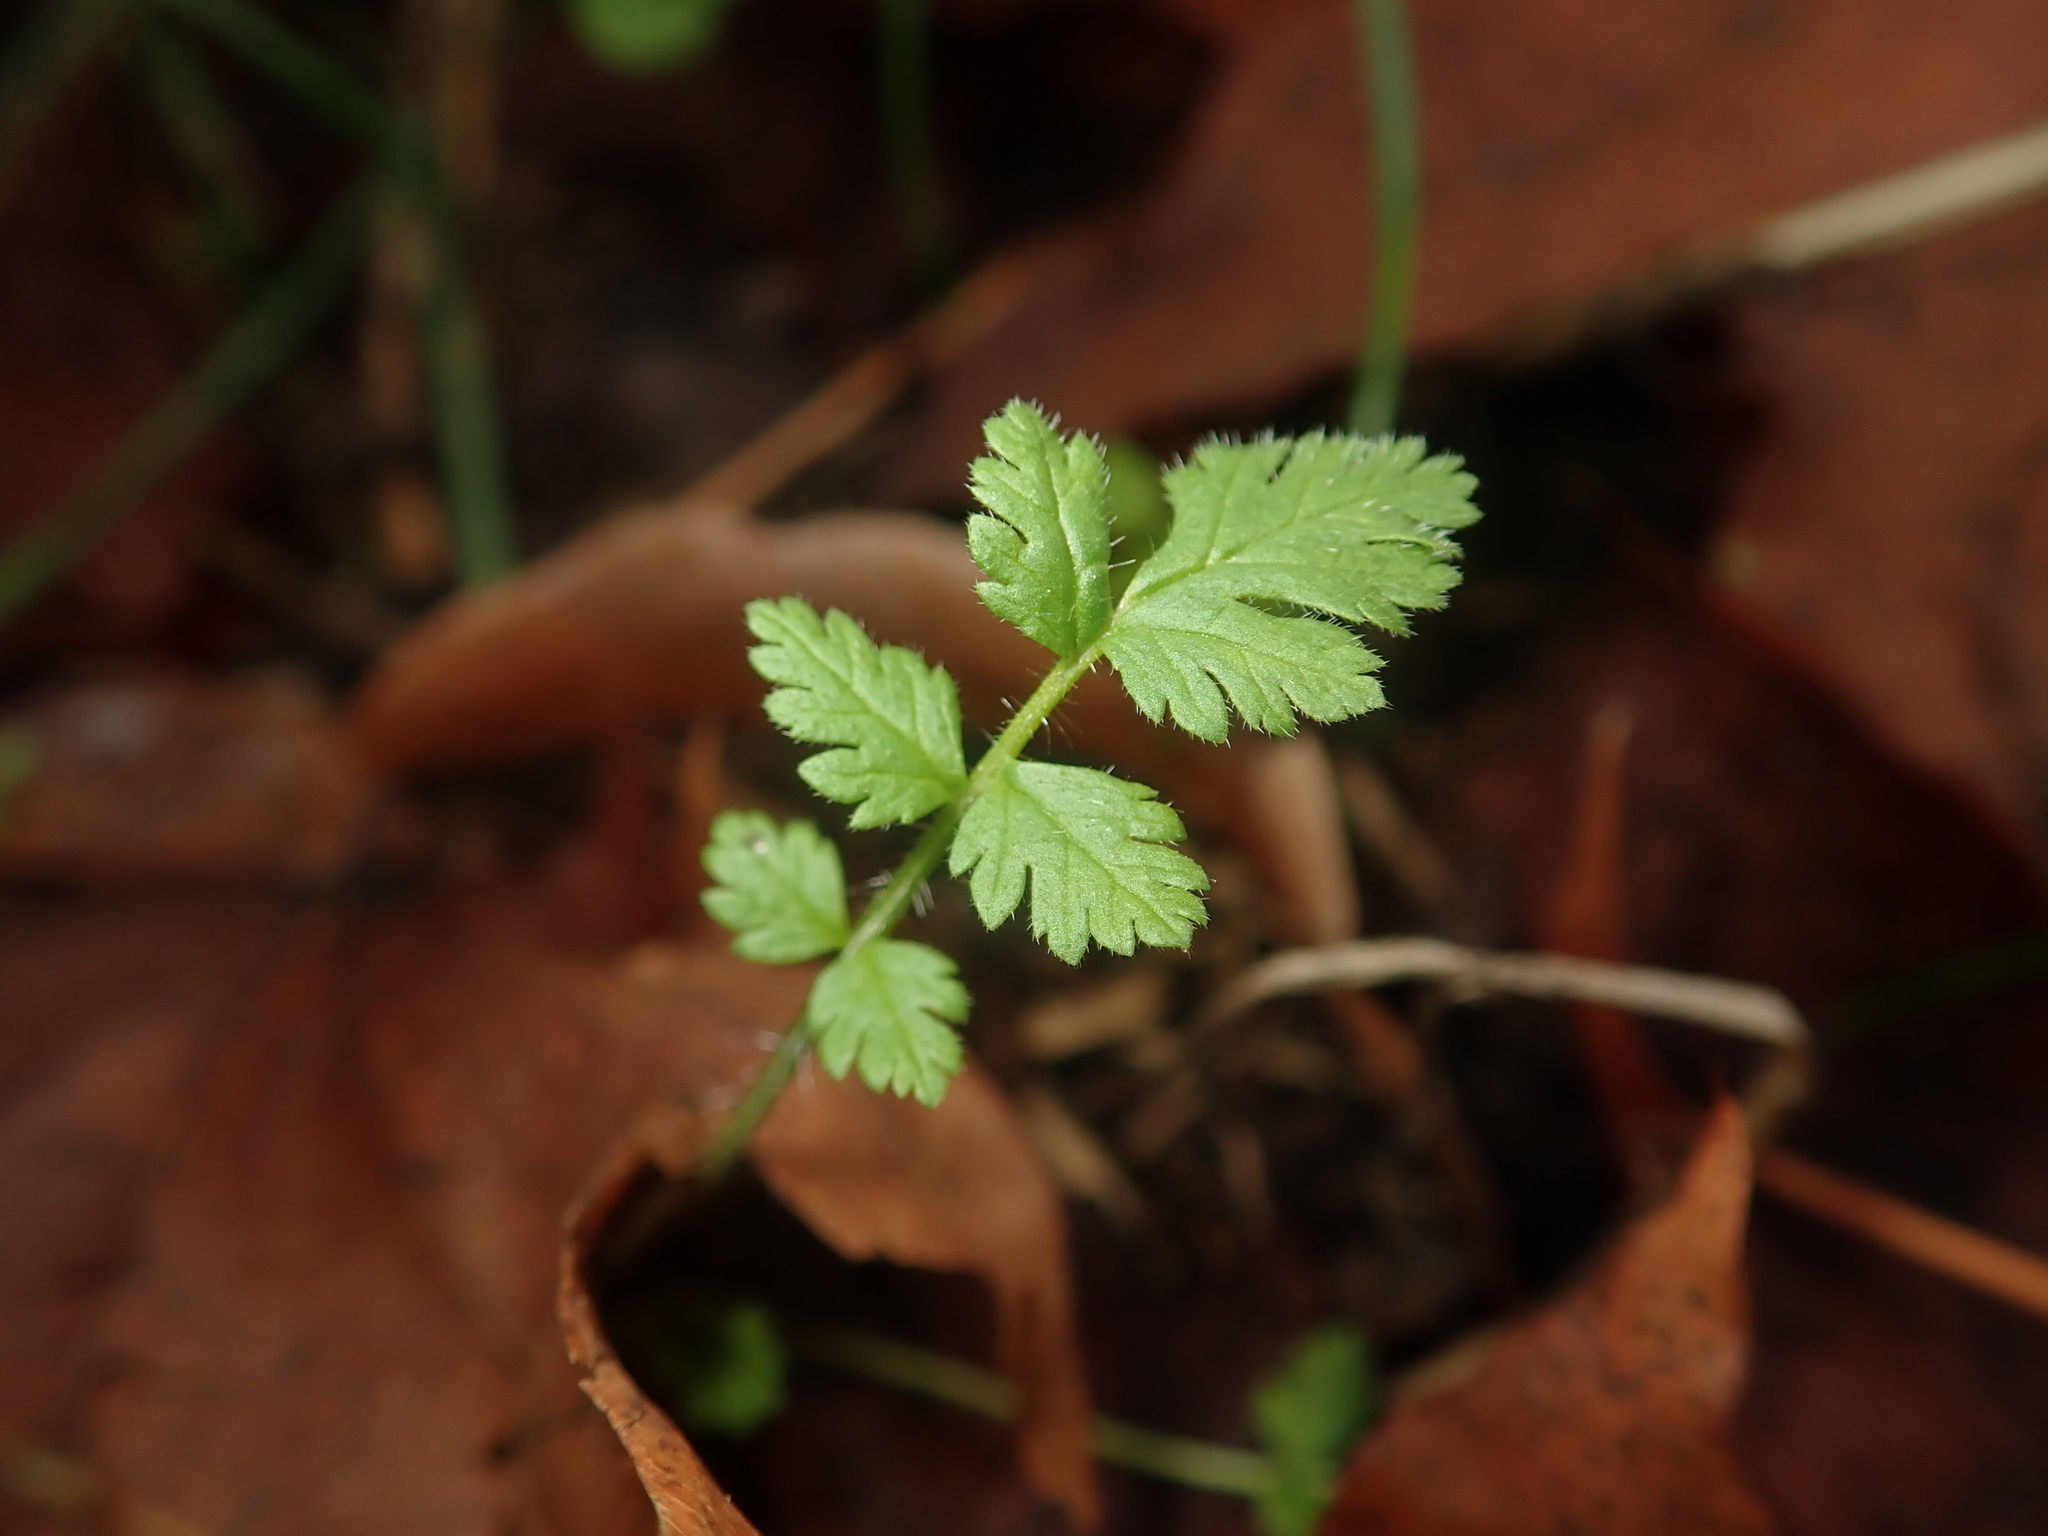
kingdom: Plantae
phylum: Tracheophyta
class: Magnoliopsida
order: Geraniales
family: Geraniaceae
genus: Erodium
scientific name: Erodium cicutarium
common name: Common stork's-bill
